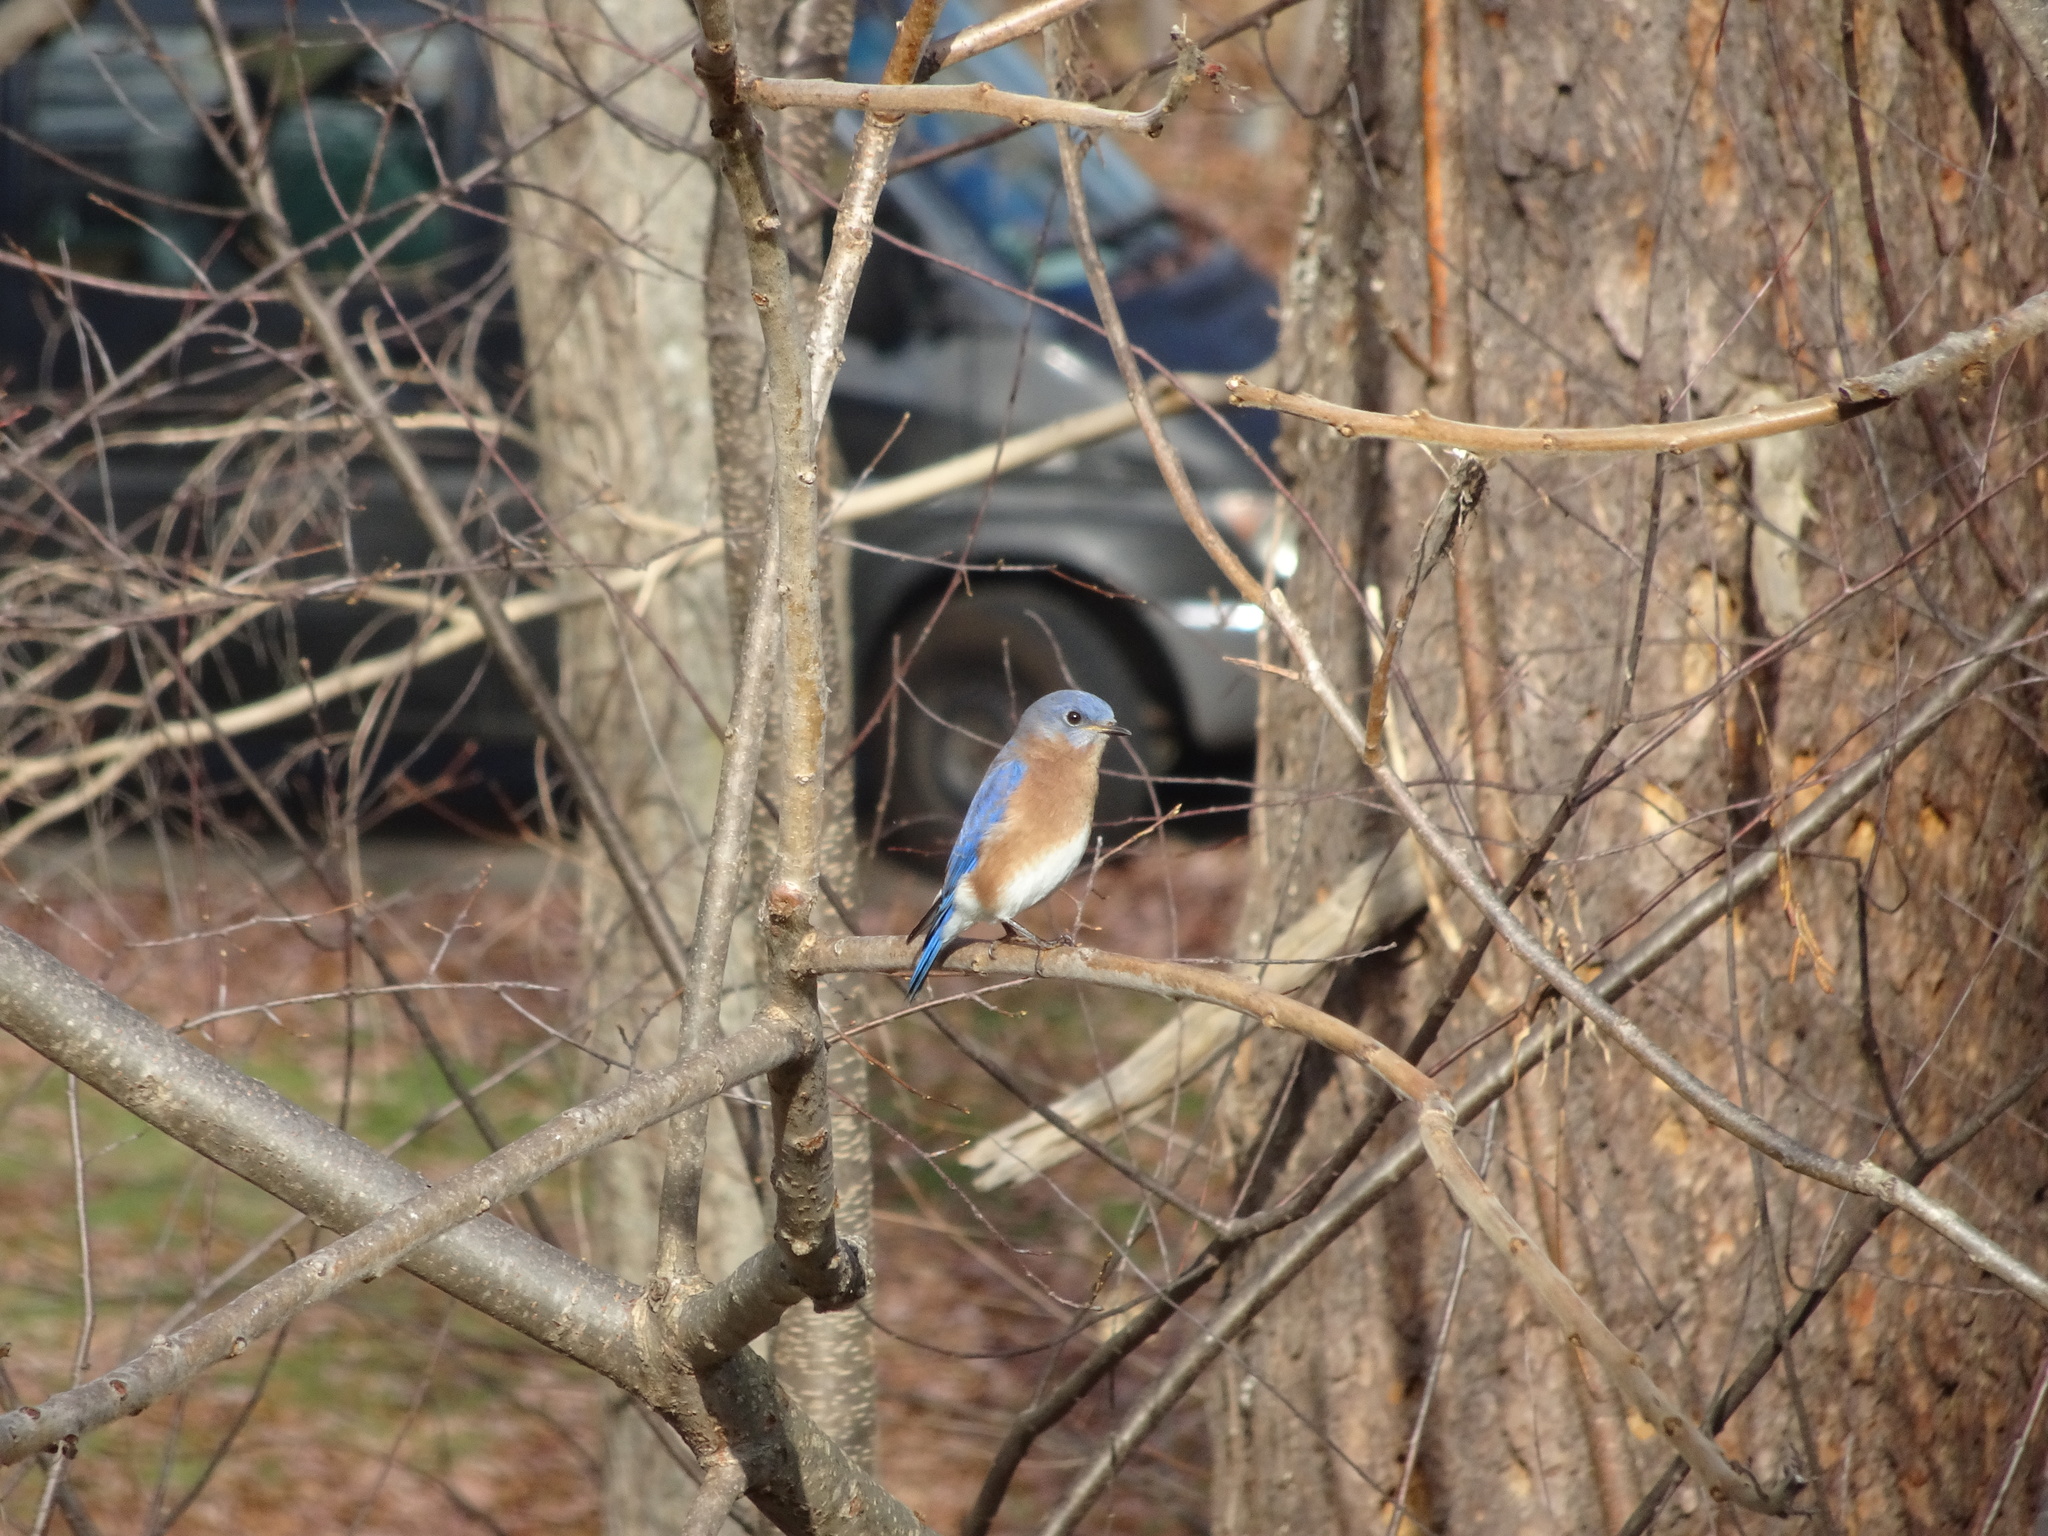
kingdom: Animalia
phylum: Chordata
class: Aves
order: Passeriformes
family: Turdidae
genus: Sialia
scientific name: Sialia sialis
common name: Eastern bluebird
